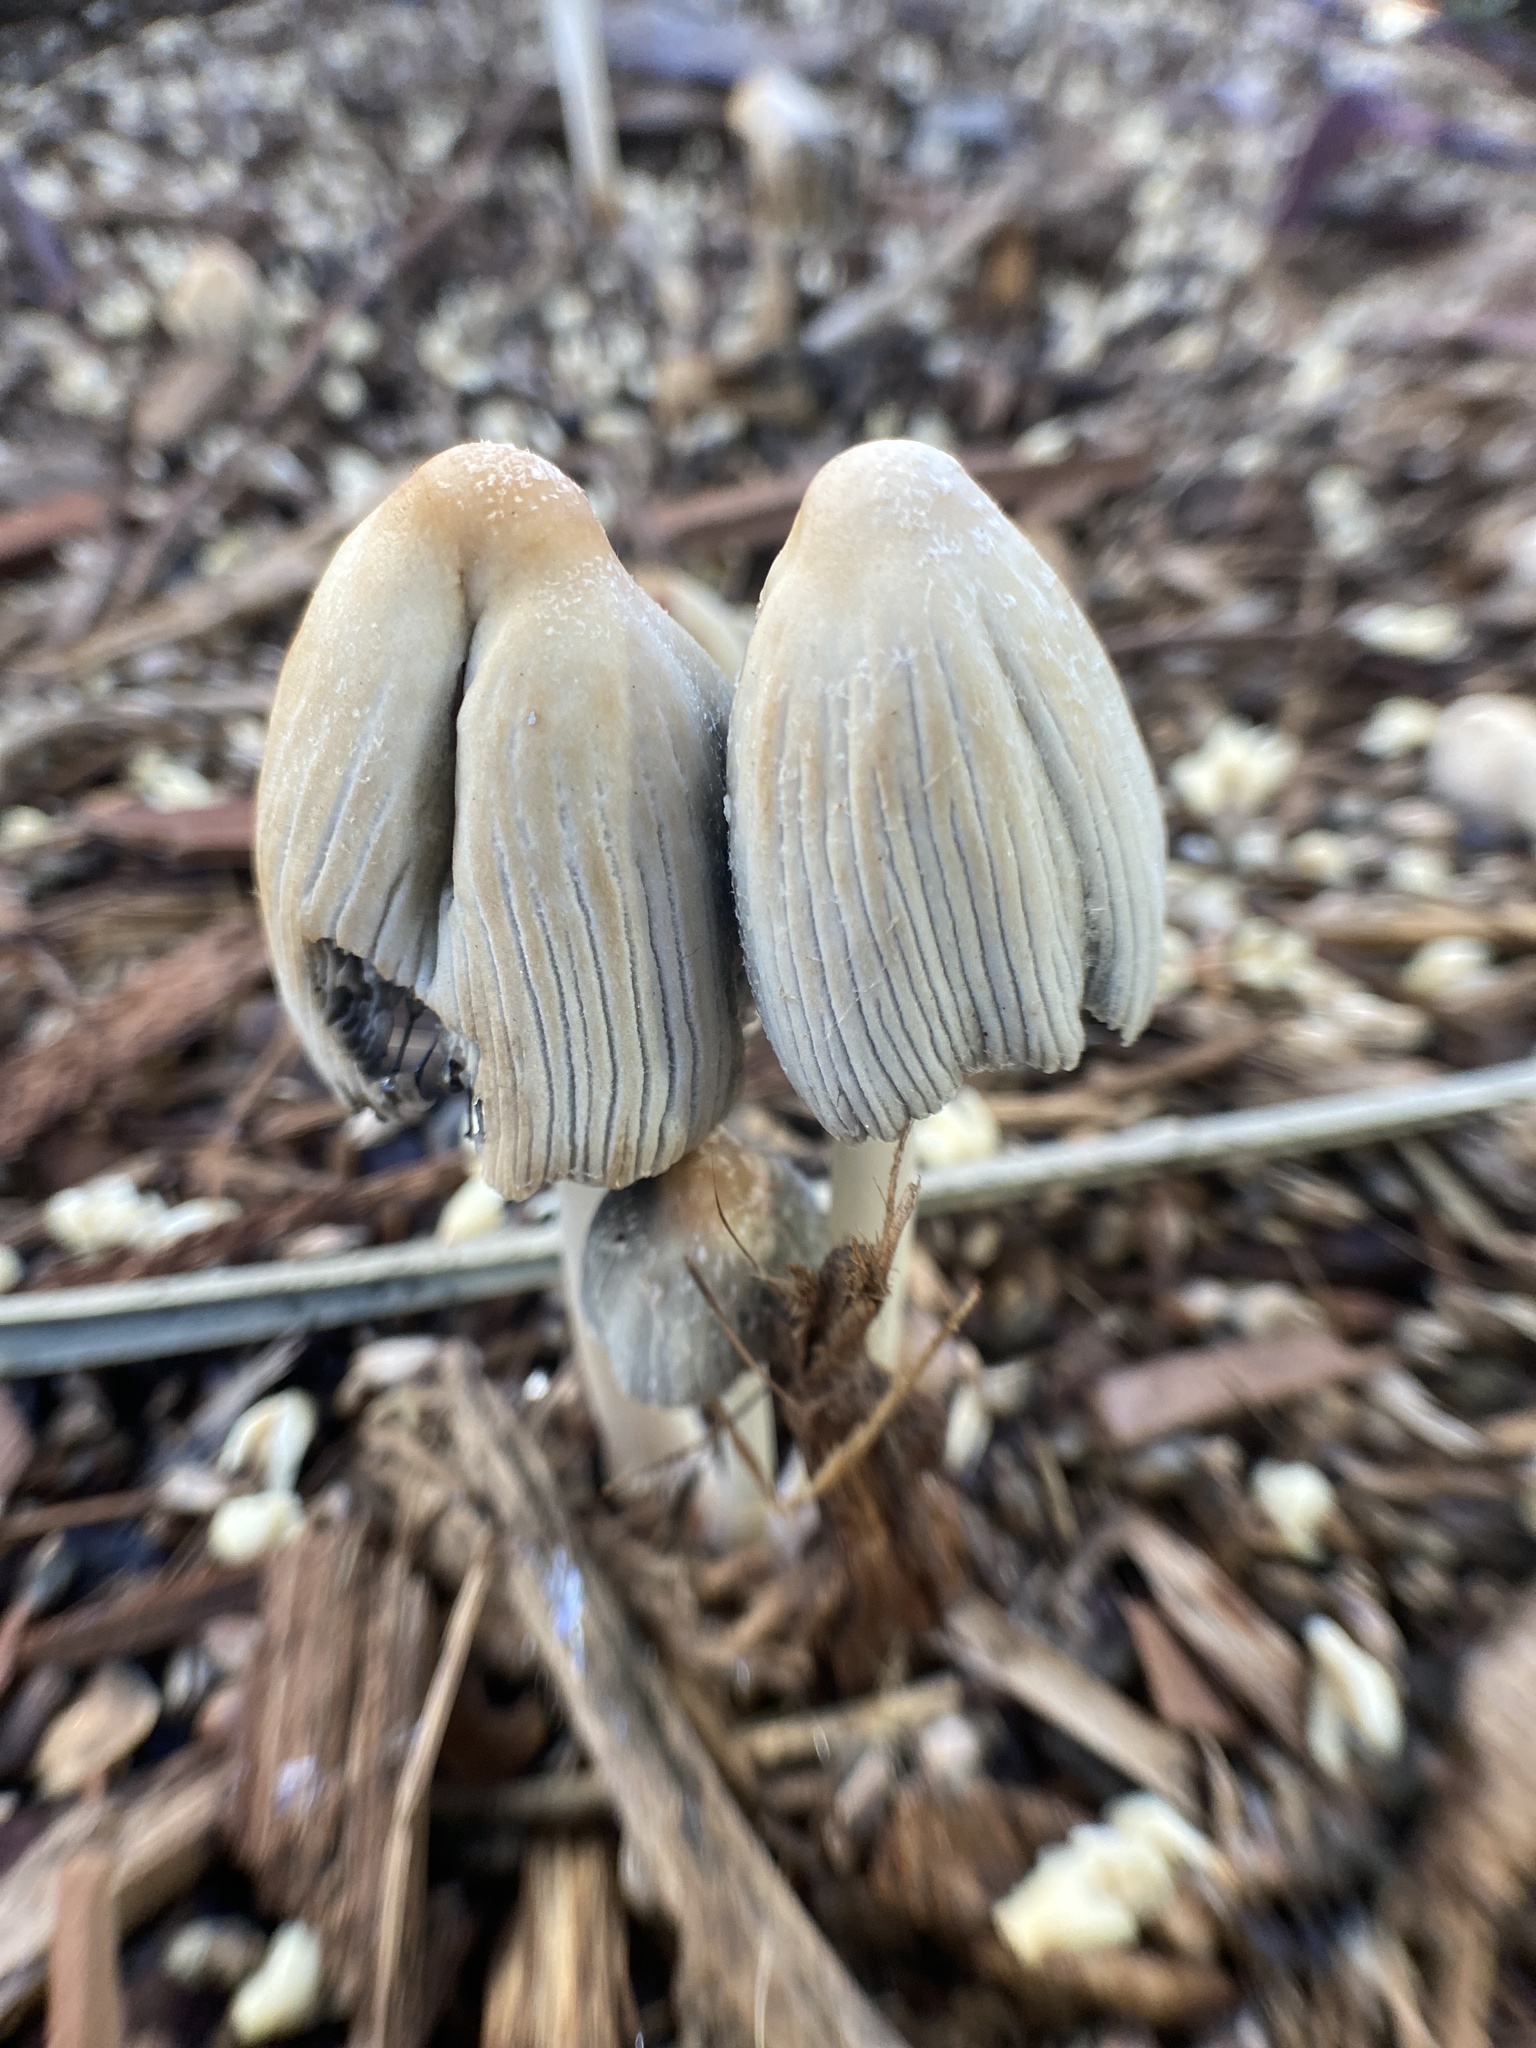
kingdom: Fungi
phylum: Basidiomycota
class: Agaricomycetes
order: Agaricales
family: Psathyrellaceae
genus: Coprinellus
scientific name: Coprinellus flocculosus
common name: Flocculose inkcap
